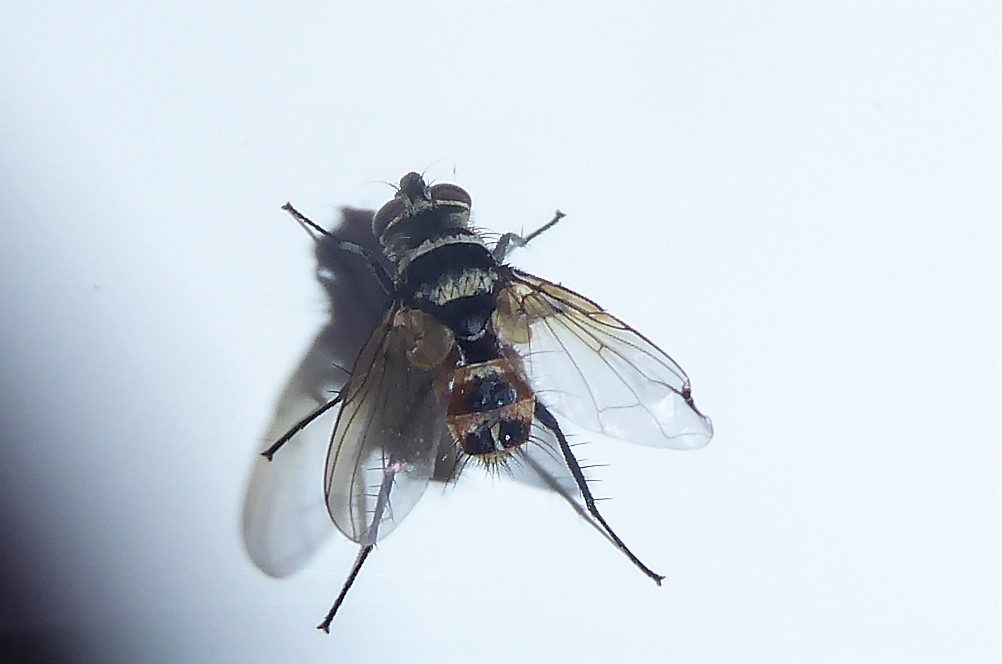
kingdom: Animalia
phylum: Arthropoda
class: Insecta
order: Diptera
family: Tachinidae
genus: Trigonospila
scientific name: Trigonospila brevifacies
